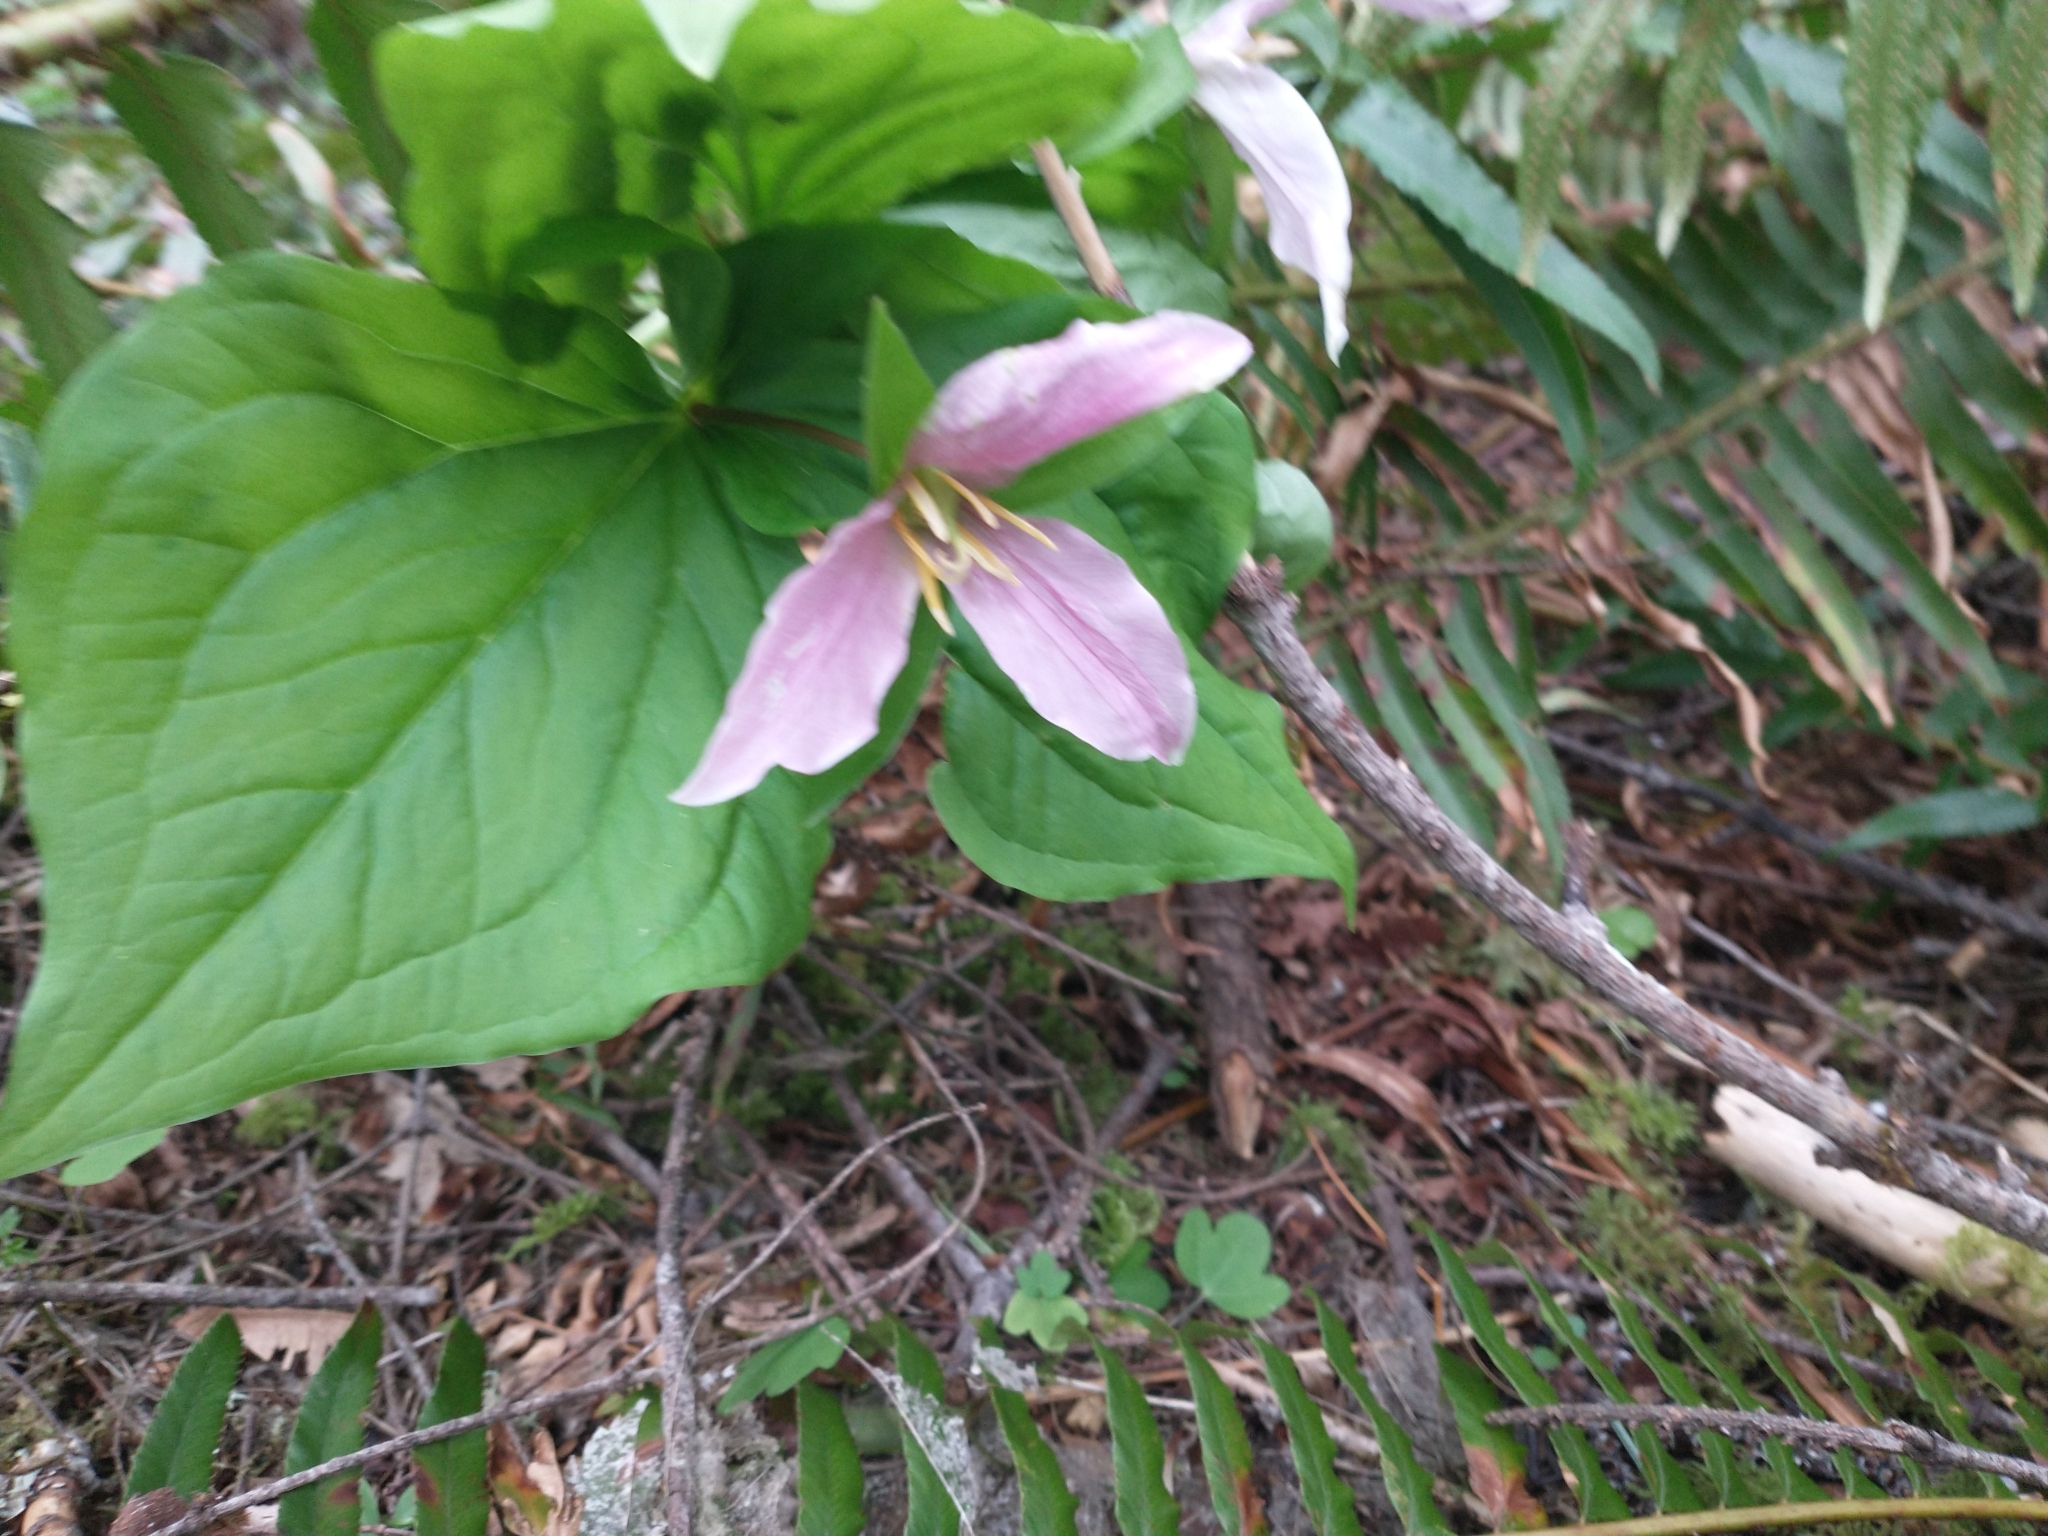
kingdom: Plantae
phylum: Tracheophyta
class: Liliopsida
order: Liliales
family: Melanthiaceae
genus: Trillium
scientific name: Trillium ovatum
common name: Pacific trillium
